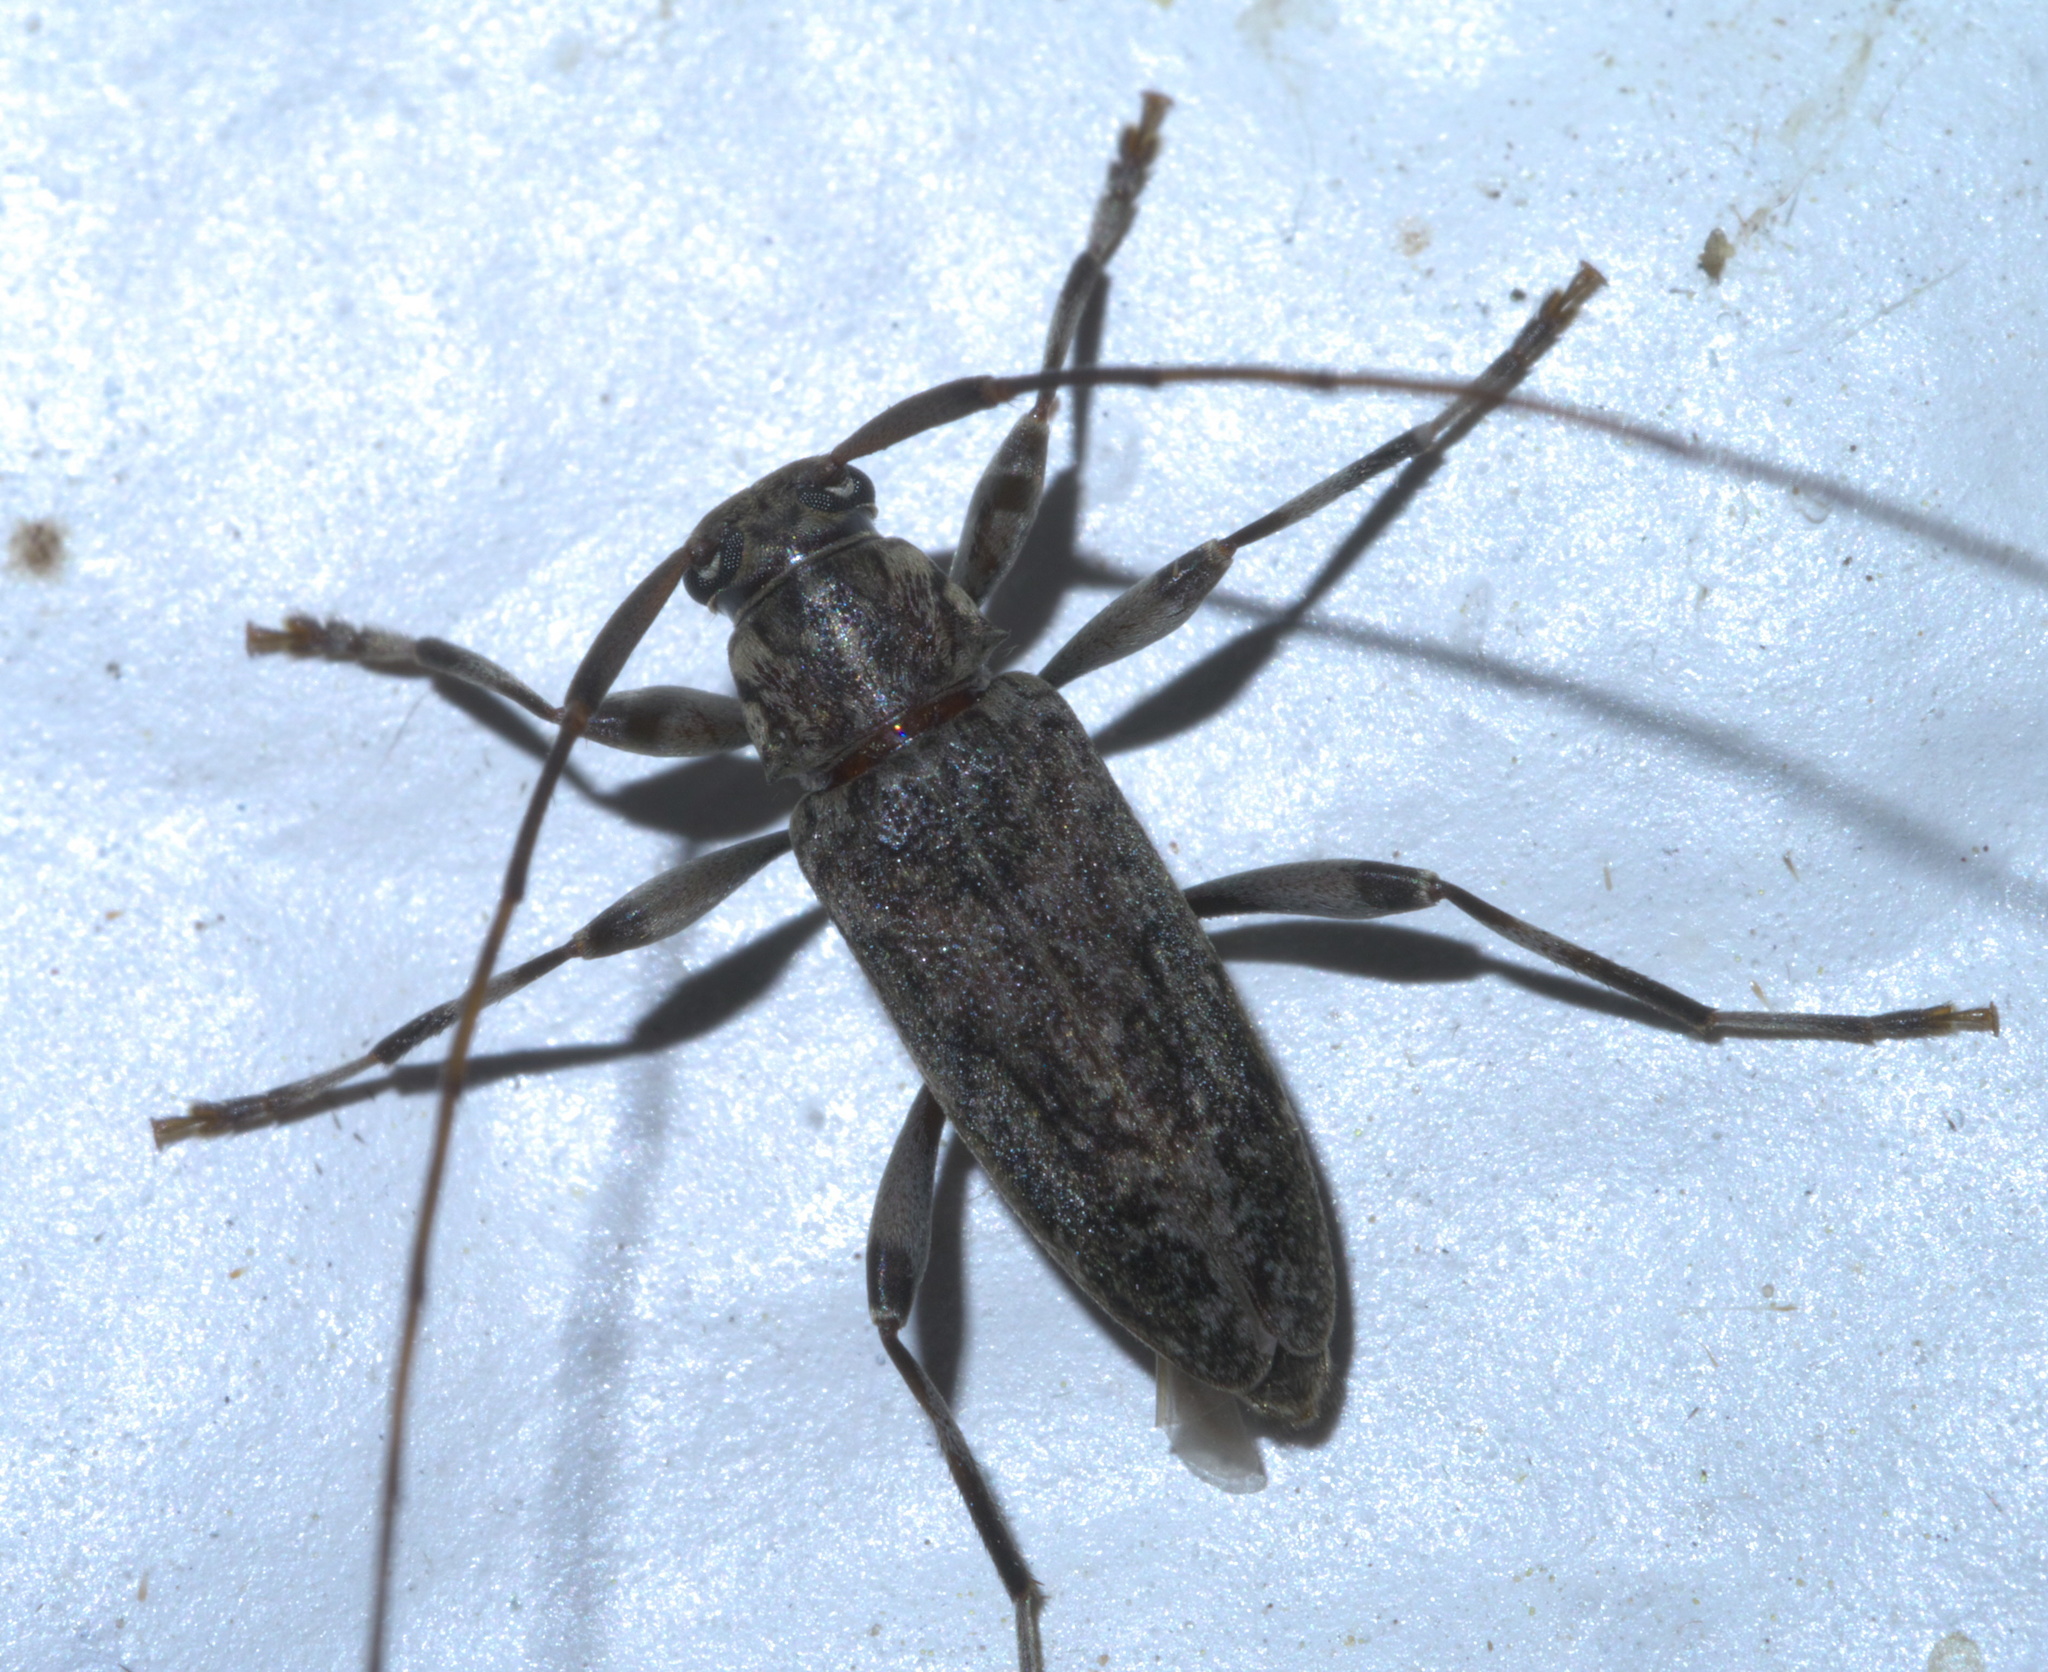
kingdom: Animalia
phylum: Arthropoda
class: Insecta
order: Coleoptera
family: Cerambycidae
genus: Lepturges
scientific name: Lepturges confluens
